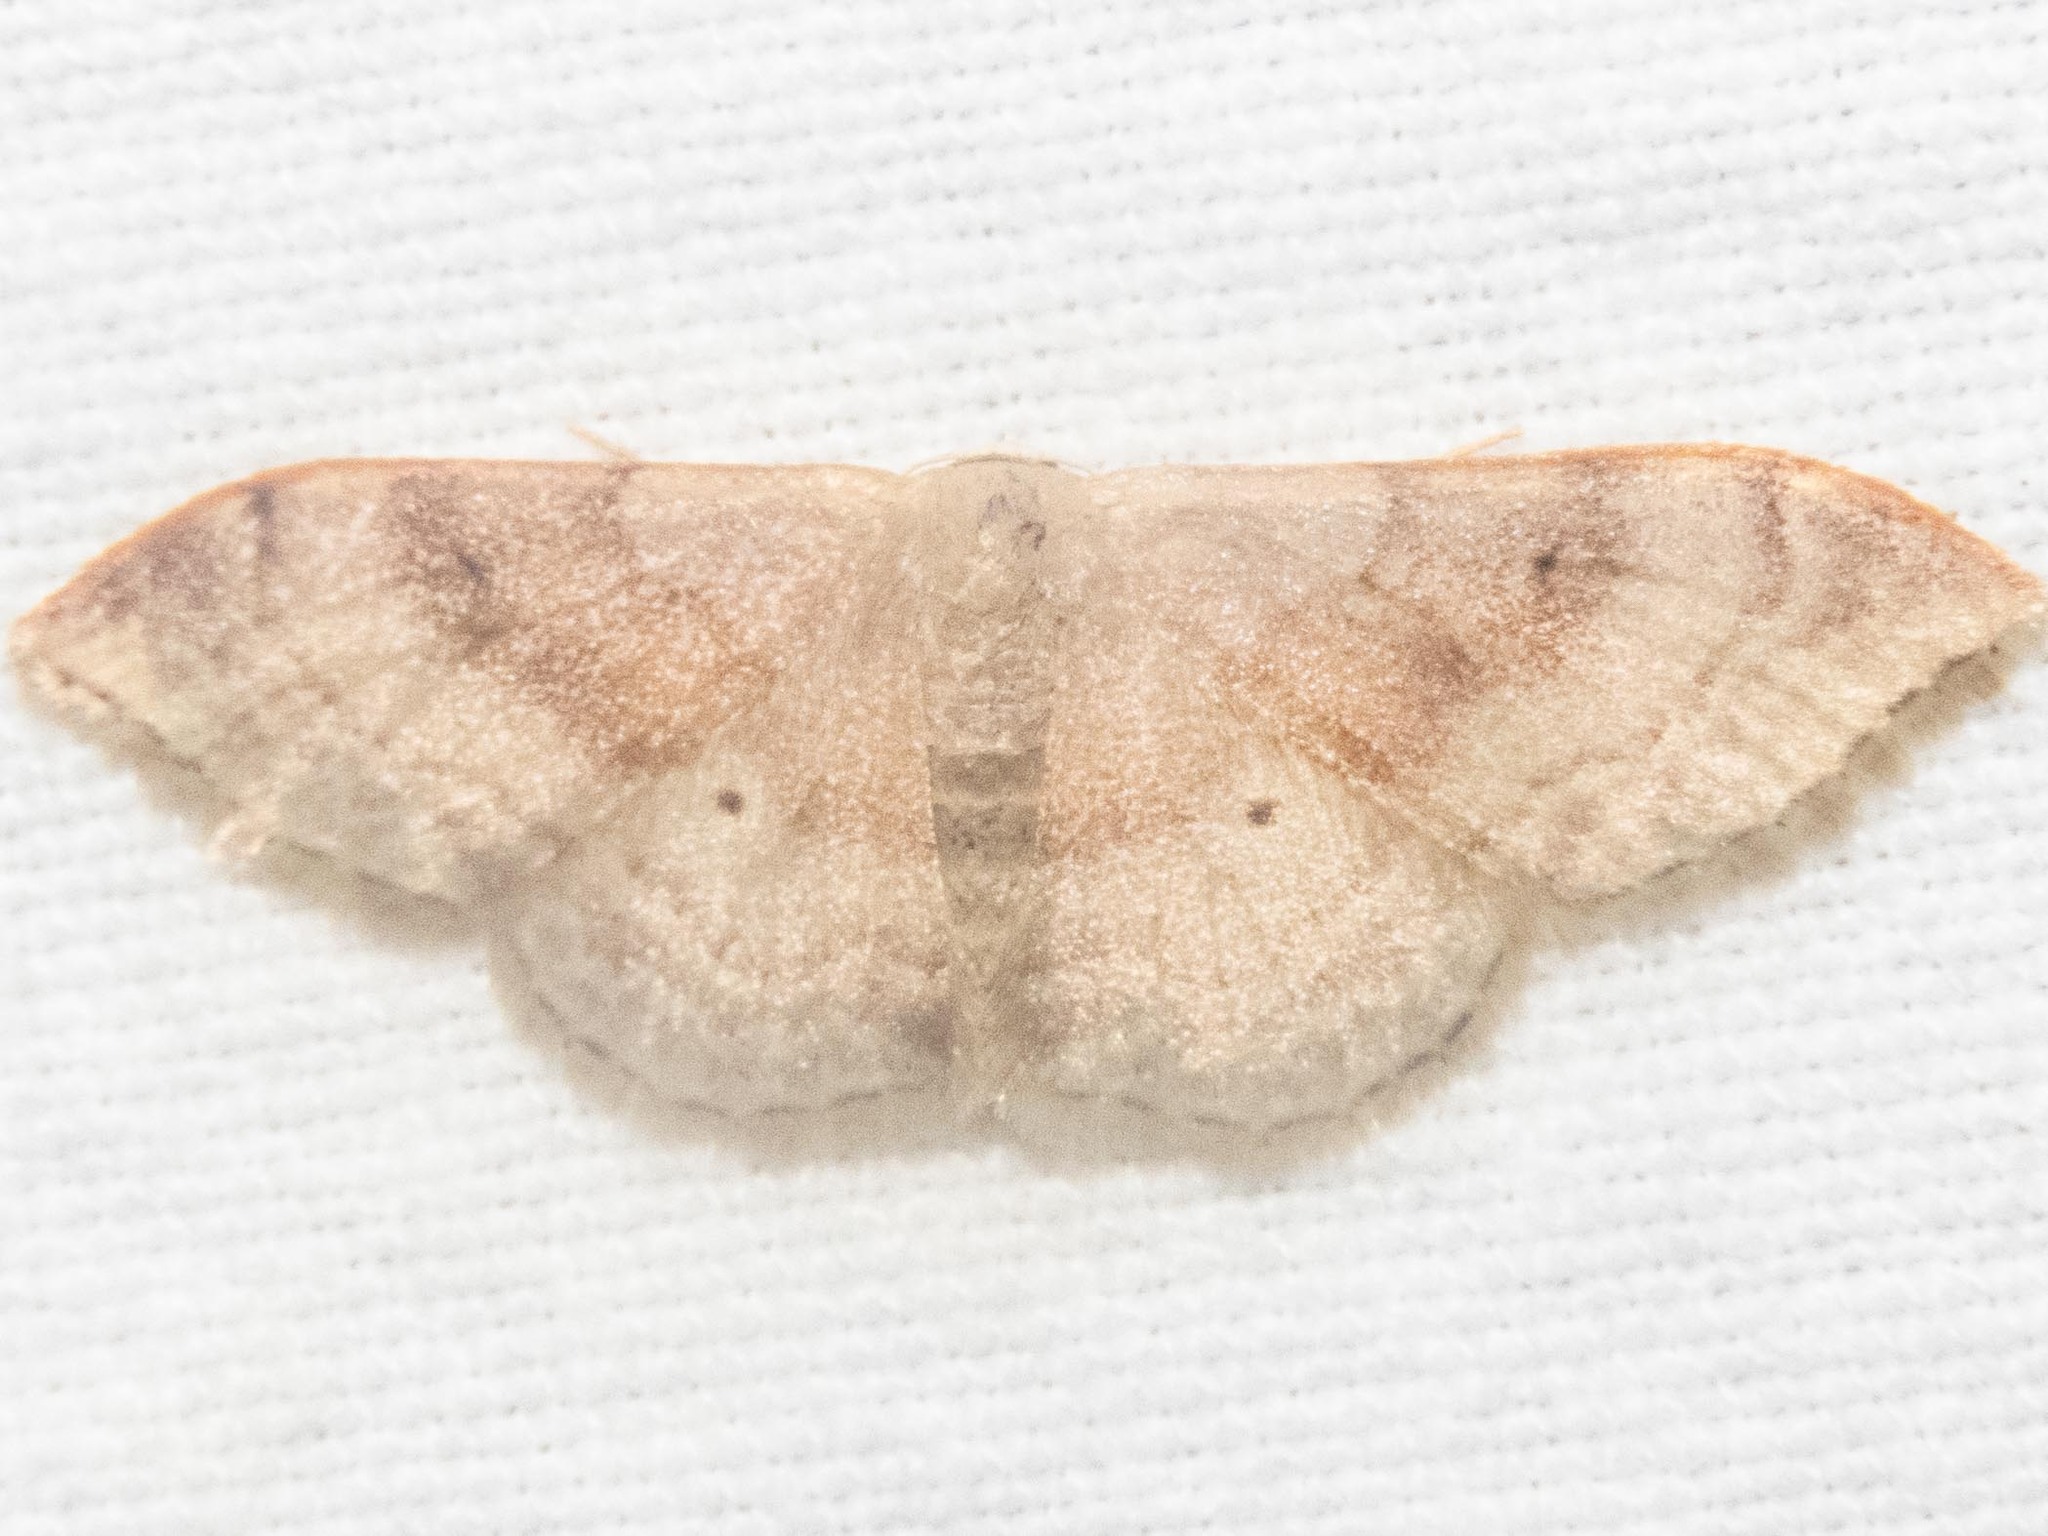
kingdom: Animalia
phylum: Arthropoda
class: Insecta
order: Lepidoptera
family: Geometridae
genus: Idaea
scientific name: Idaea degeneraria
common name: Portland ribbon wave
